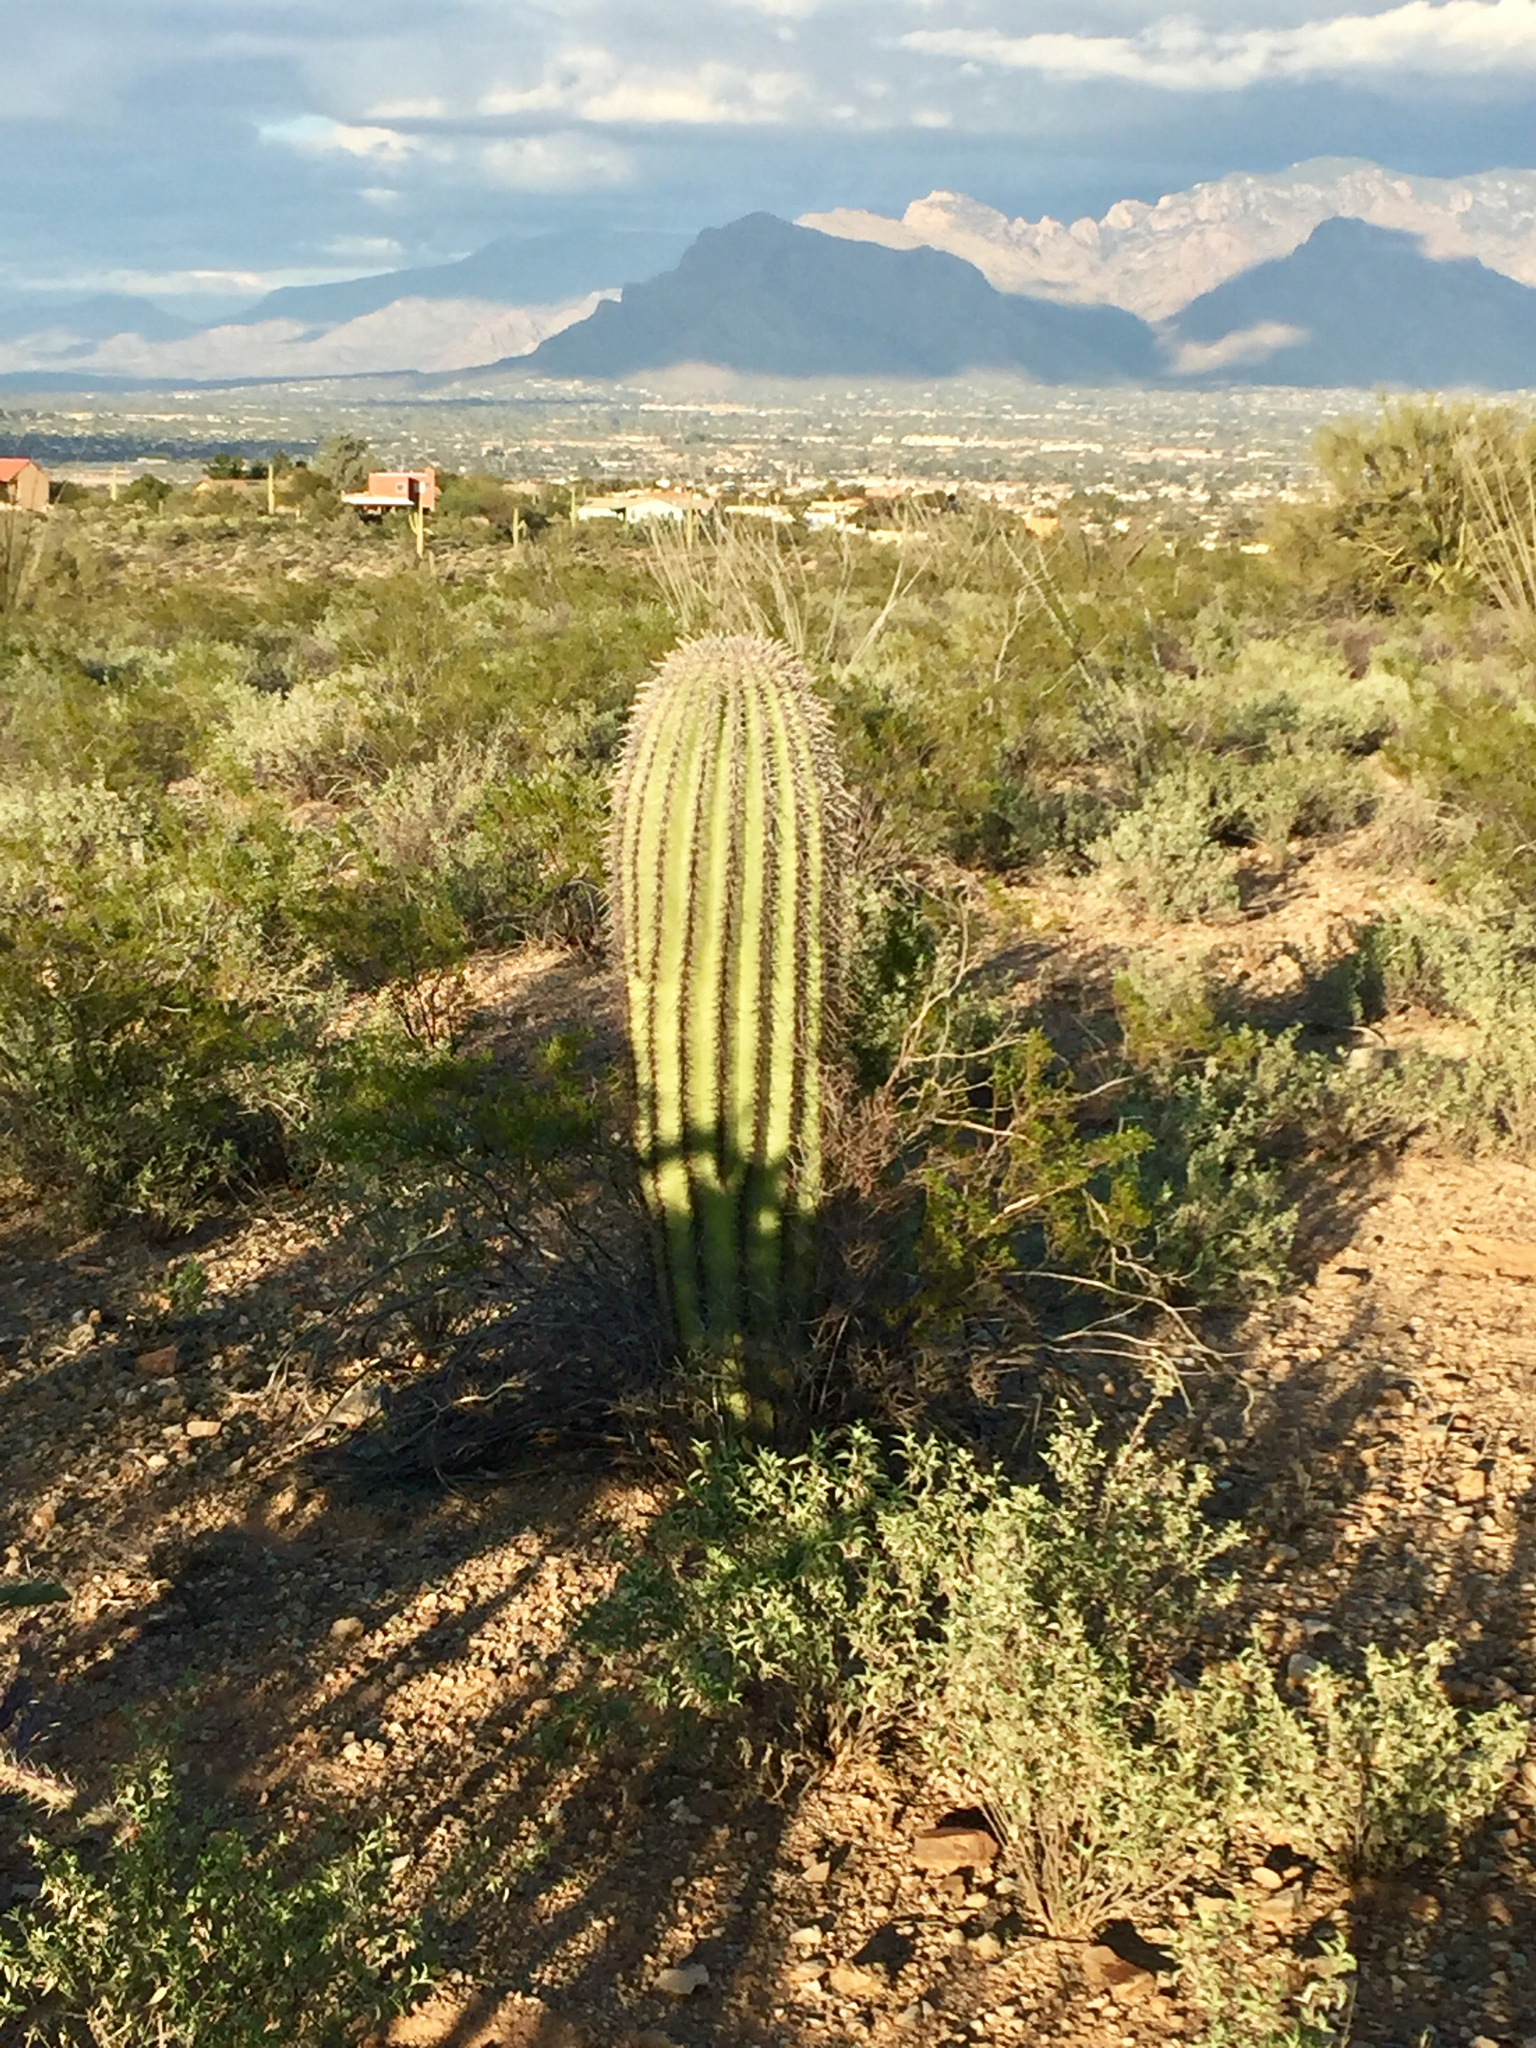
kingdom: Plantae
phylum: Tracheophyta
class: Magnoliopsida
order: Caryophyllales
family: Cactaceae
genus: Carnegiea
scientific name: Carnegiea gigantea
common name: Saguaro
